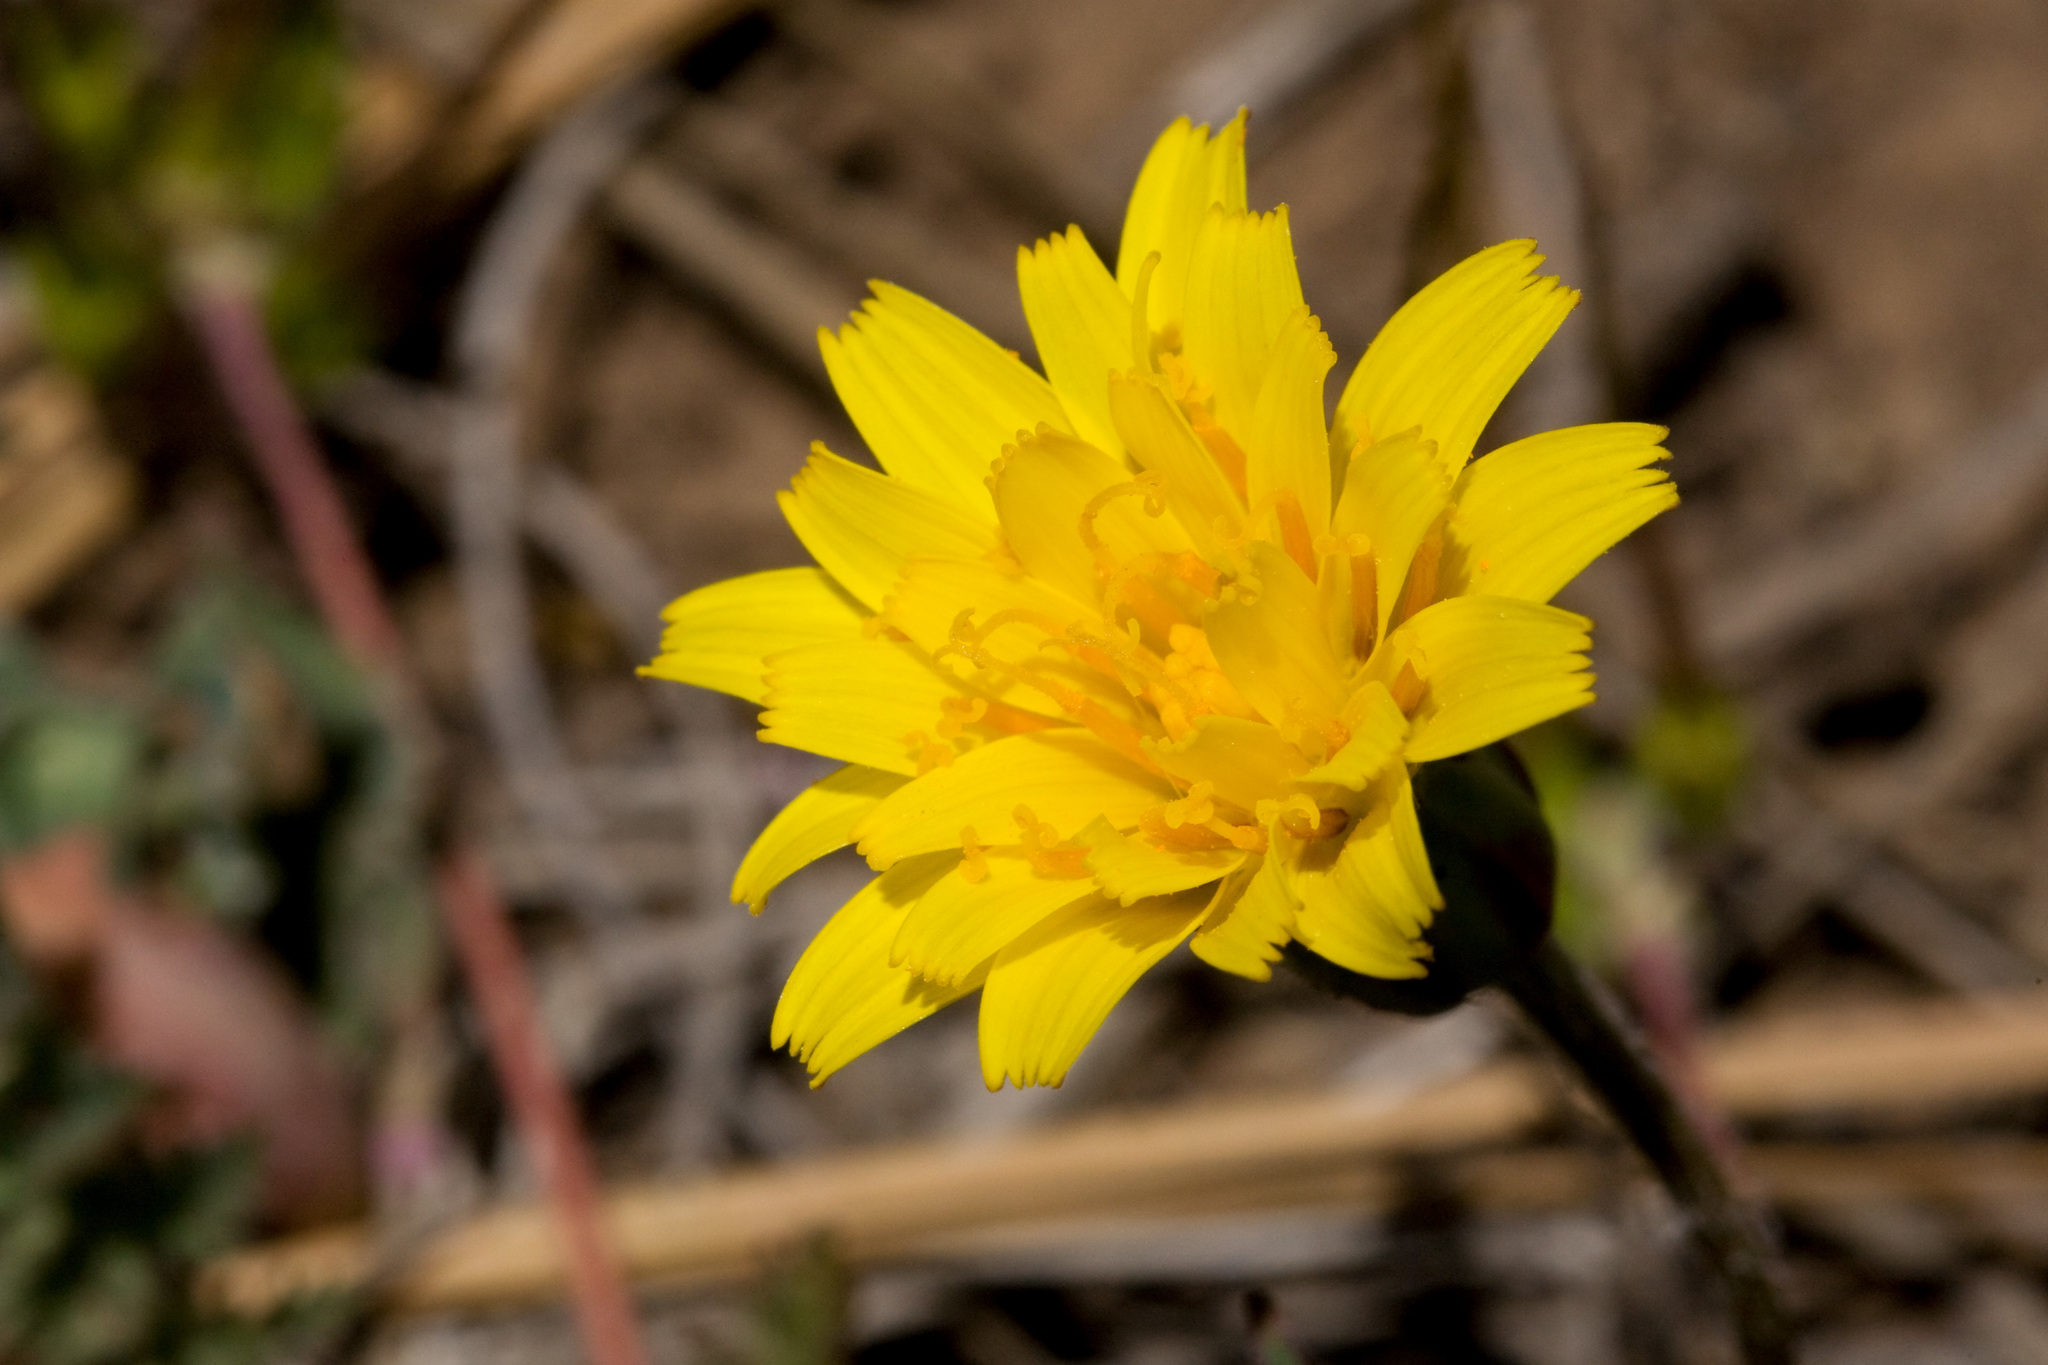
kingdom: Plantae
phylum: Tracheophyta
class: Magnoliopsida
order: Asterales
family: Asteraceae
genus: Agoseris
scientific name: Agoseris parviflora
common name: Steppe agoseris
